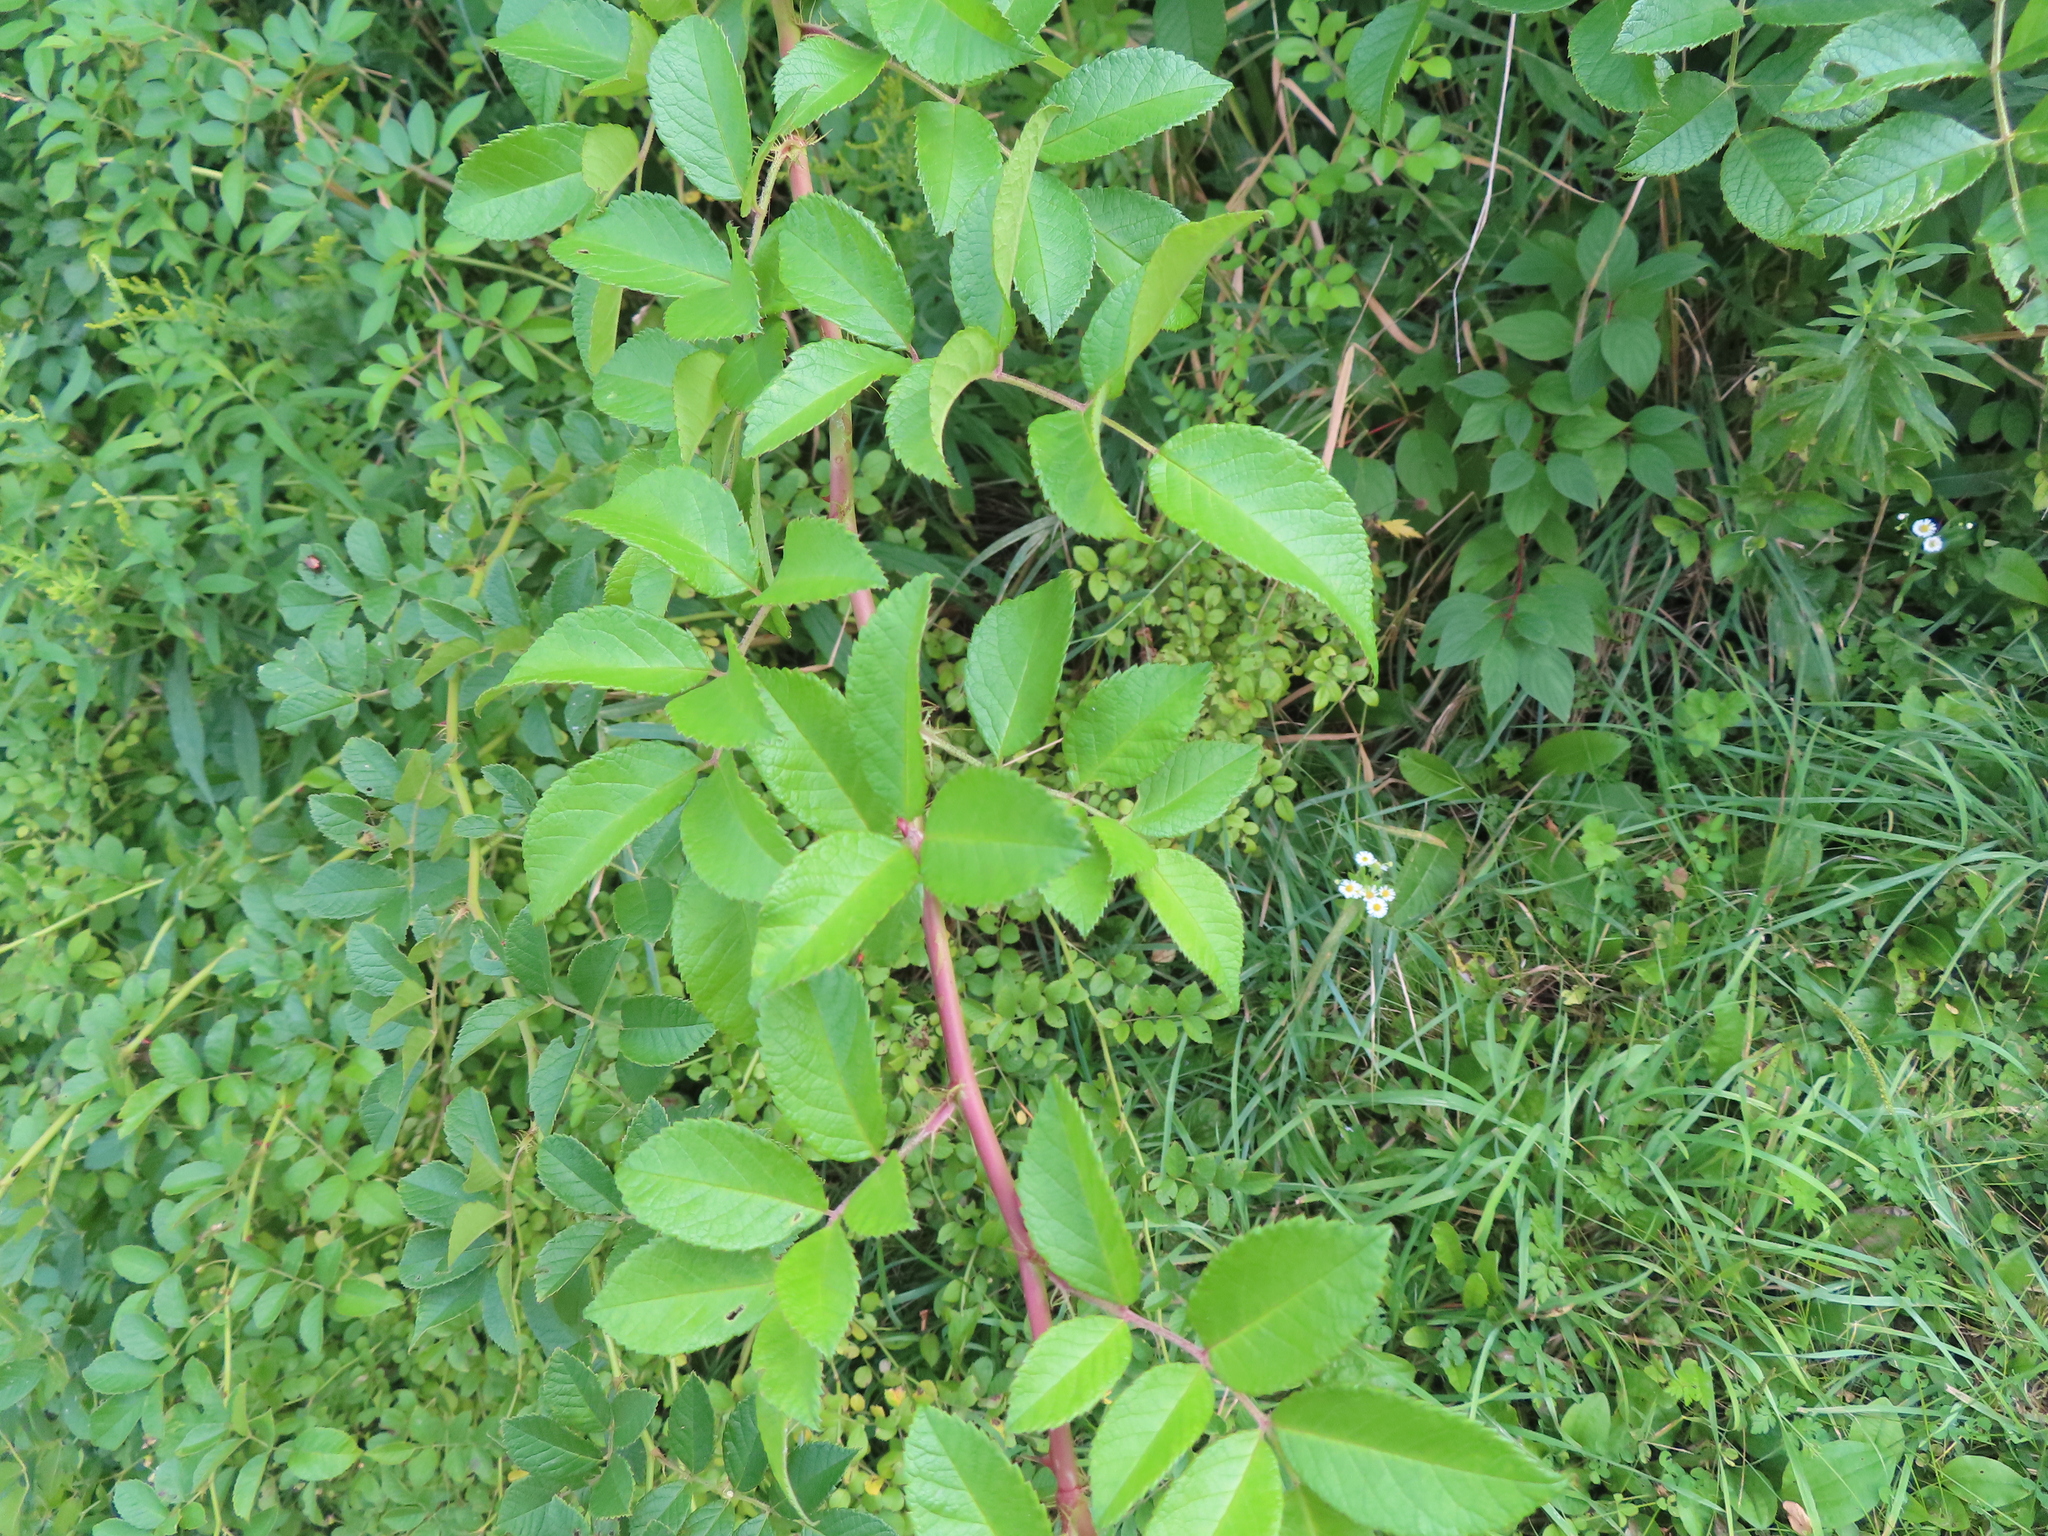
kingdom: Plantae
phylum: Tracheophyta
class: Magnoliopsida
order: Rosales
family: Rosaceae
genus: Rosa
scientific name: Rosa multiflora
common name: Multiflora rose
